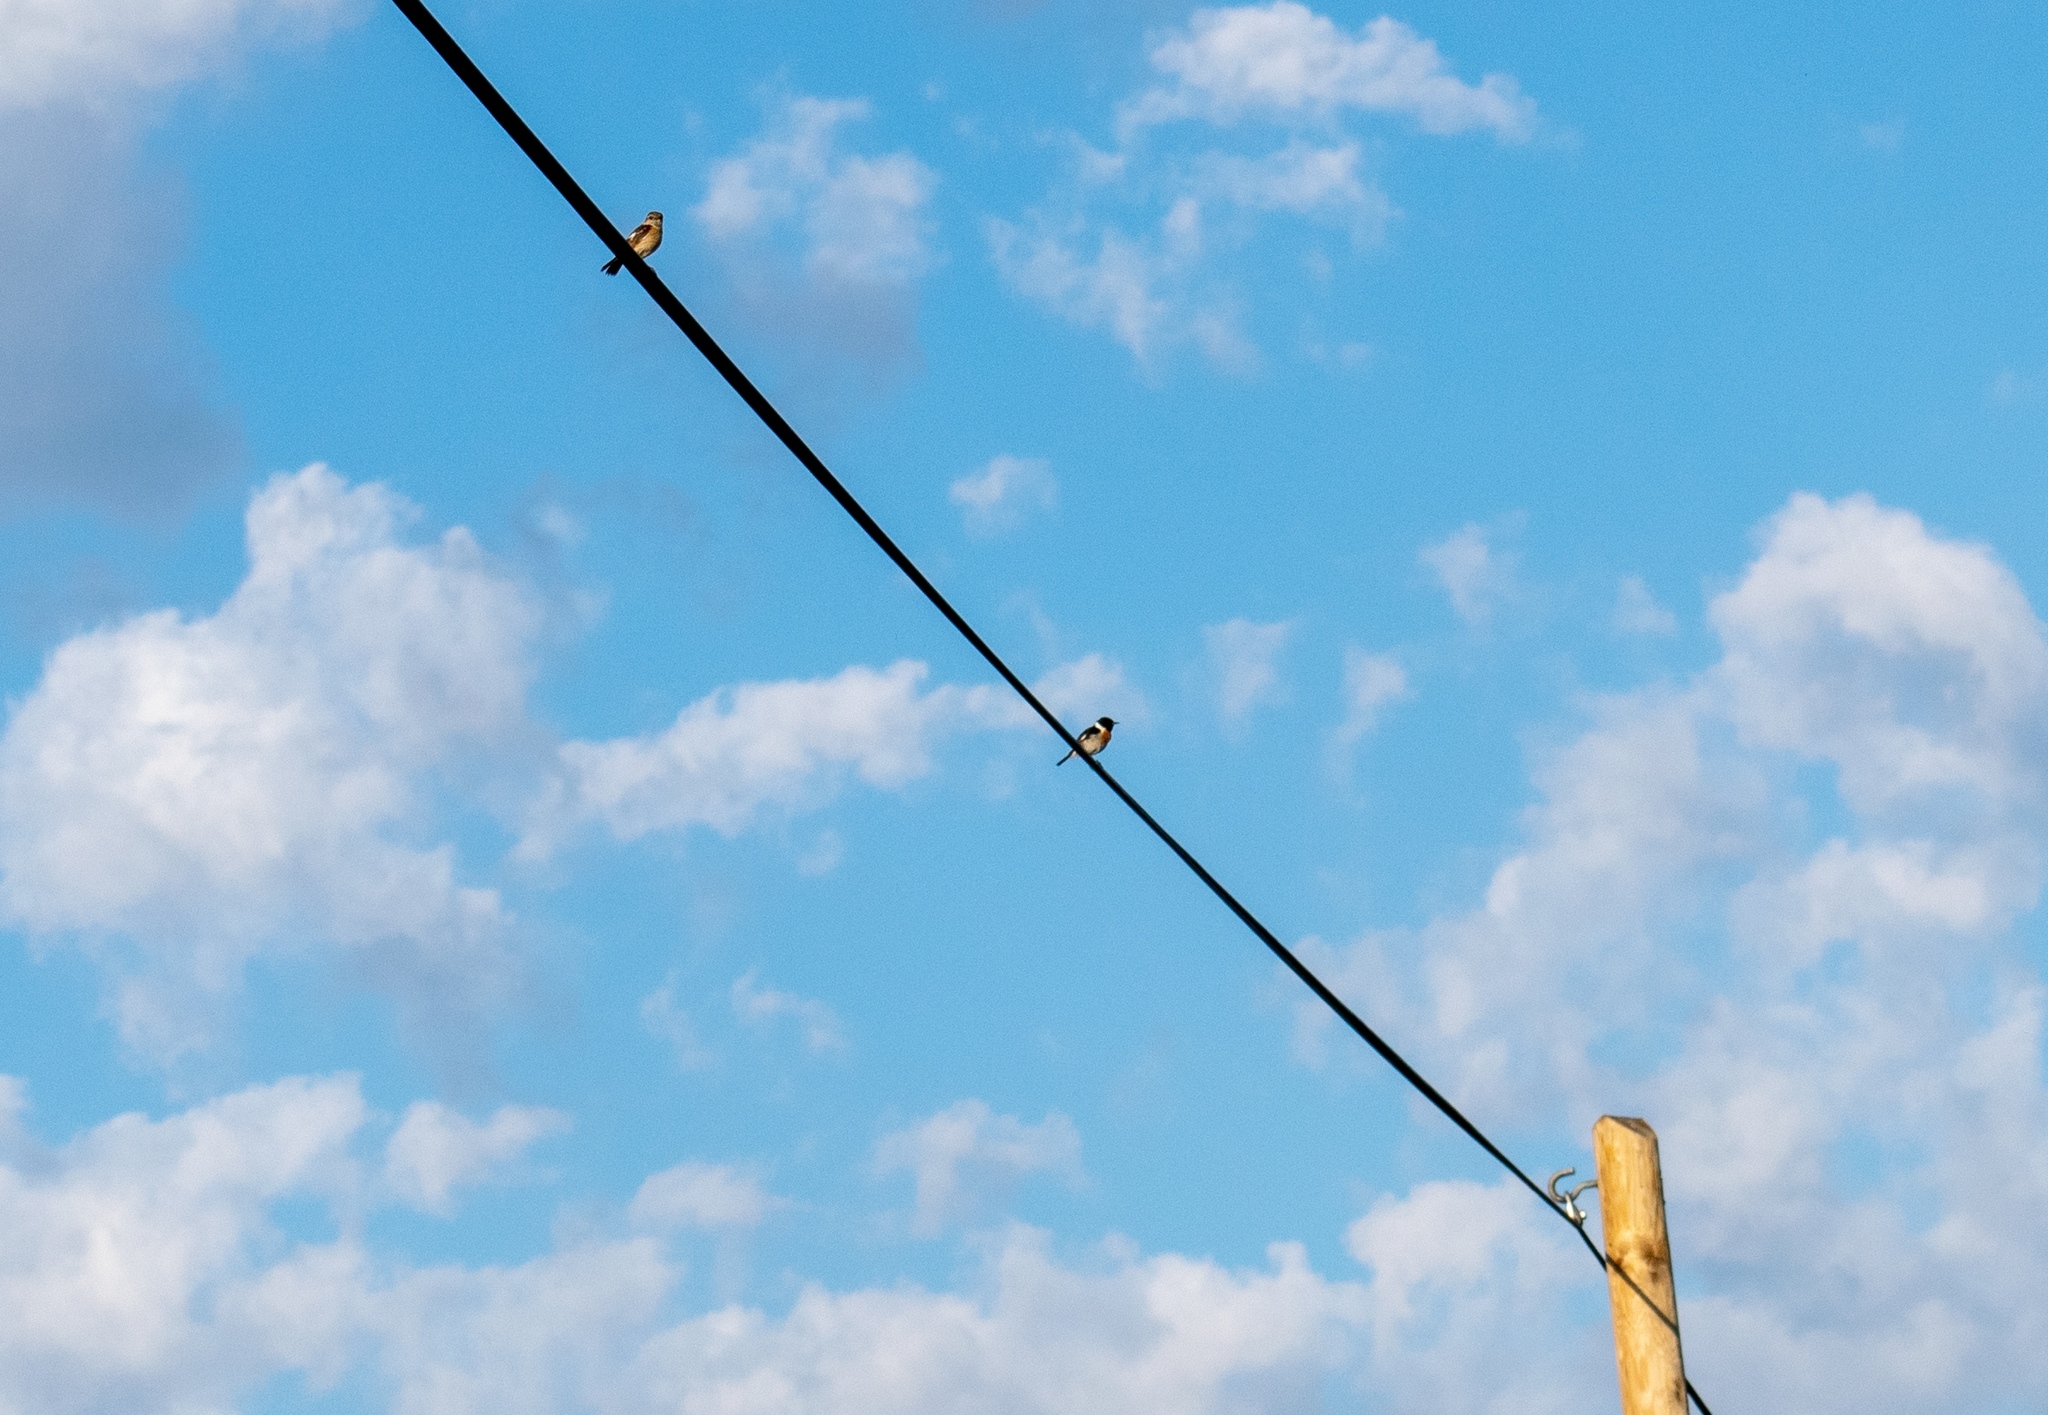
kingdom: Animalia
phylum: Chordata
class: Aves
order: Passeriformes
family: Muscicapidae
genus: Saxicola
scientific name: Saxicola rubicola
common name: European stonechat
